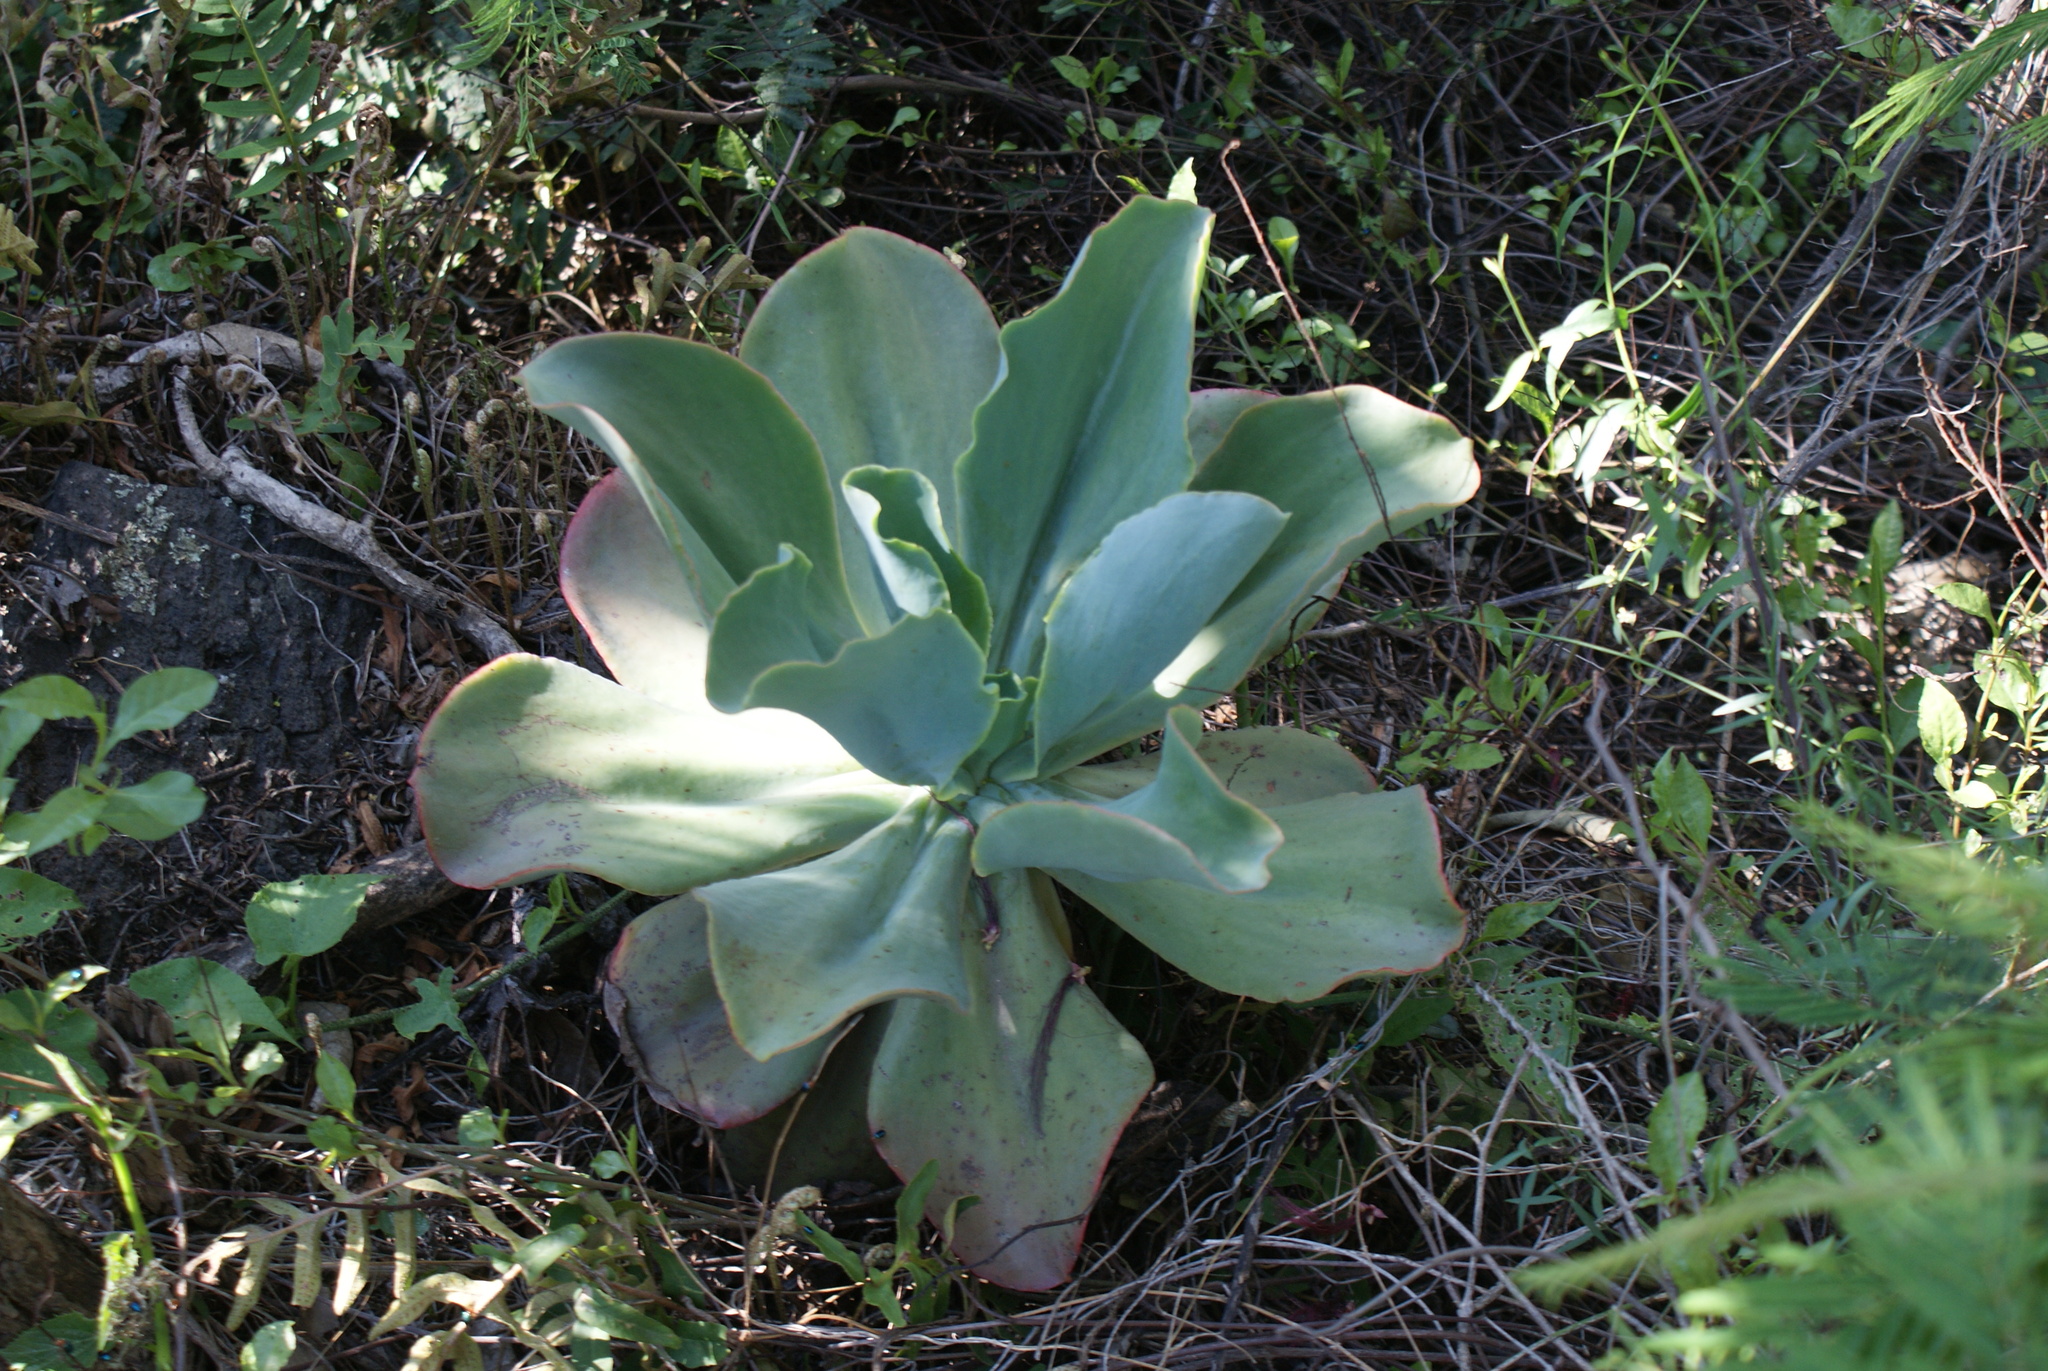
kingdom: Plantae
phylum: Tracheophyta
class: Magnoliopsida
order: Saxifragales
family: Crassulaceae
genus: Echeveria
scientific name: Echeveria gibbiflora
